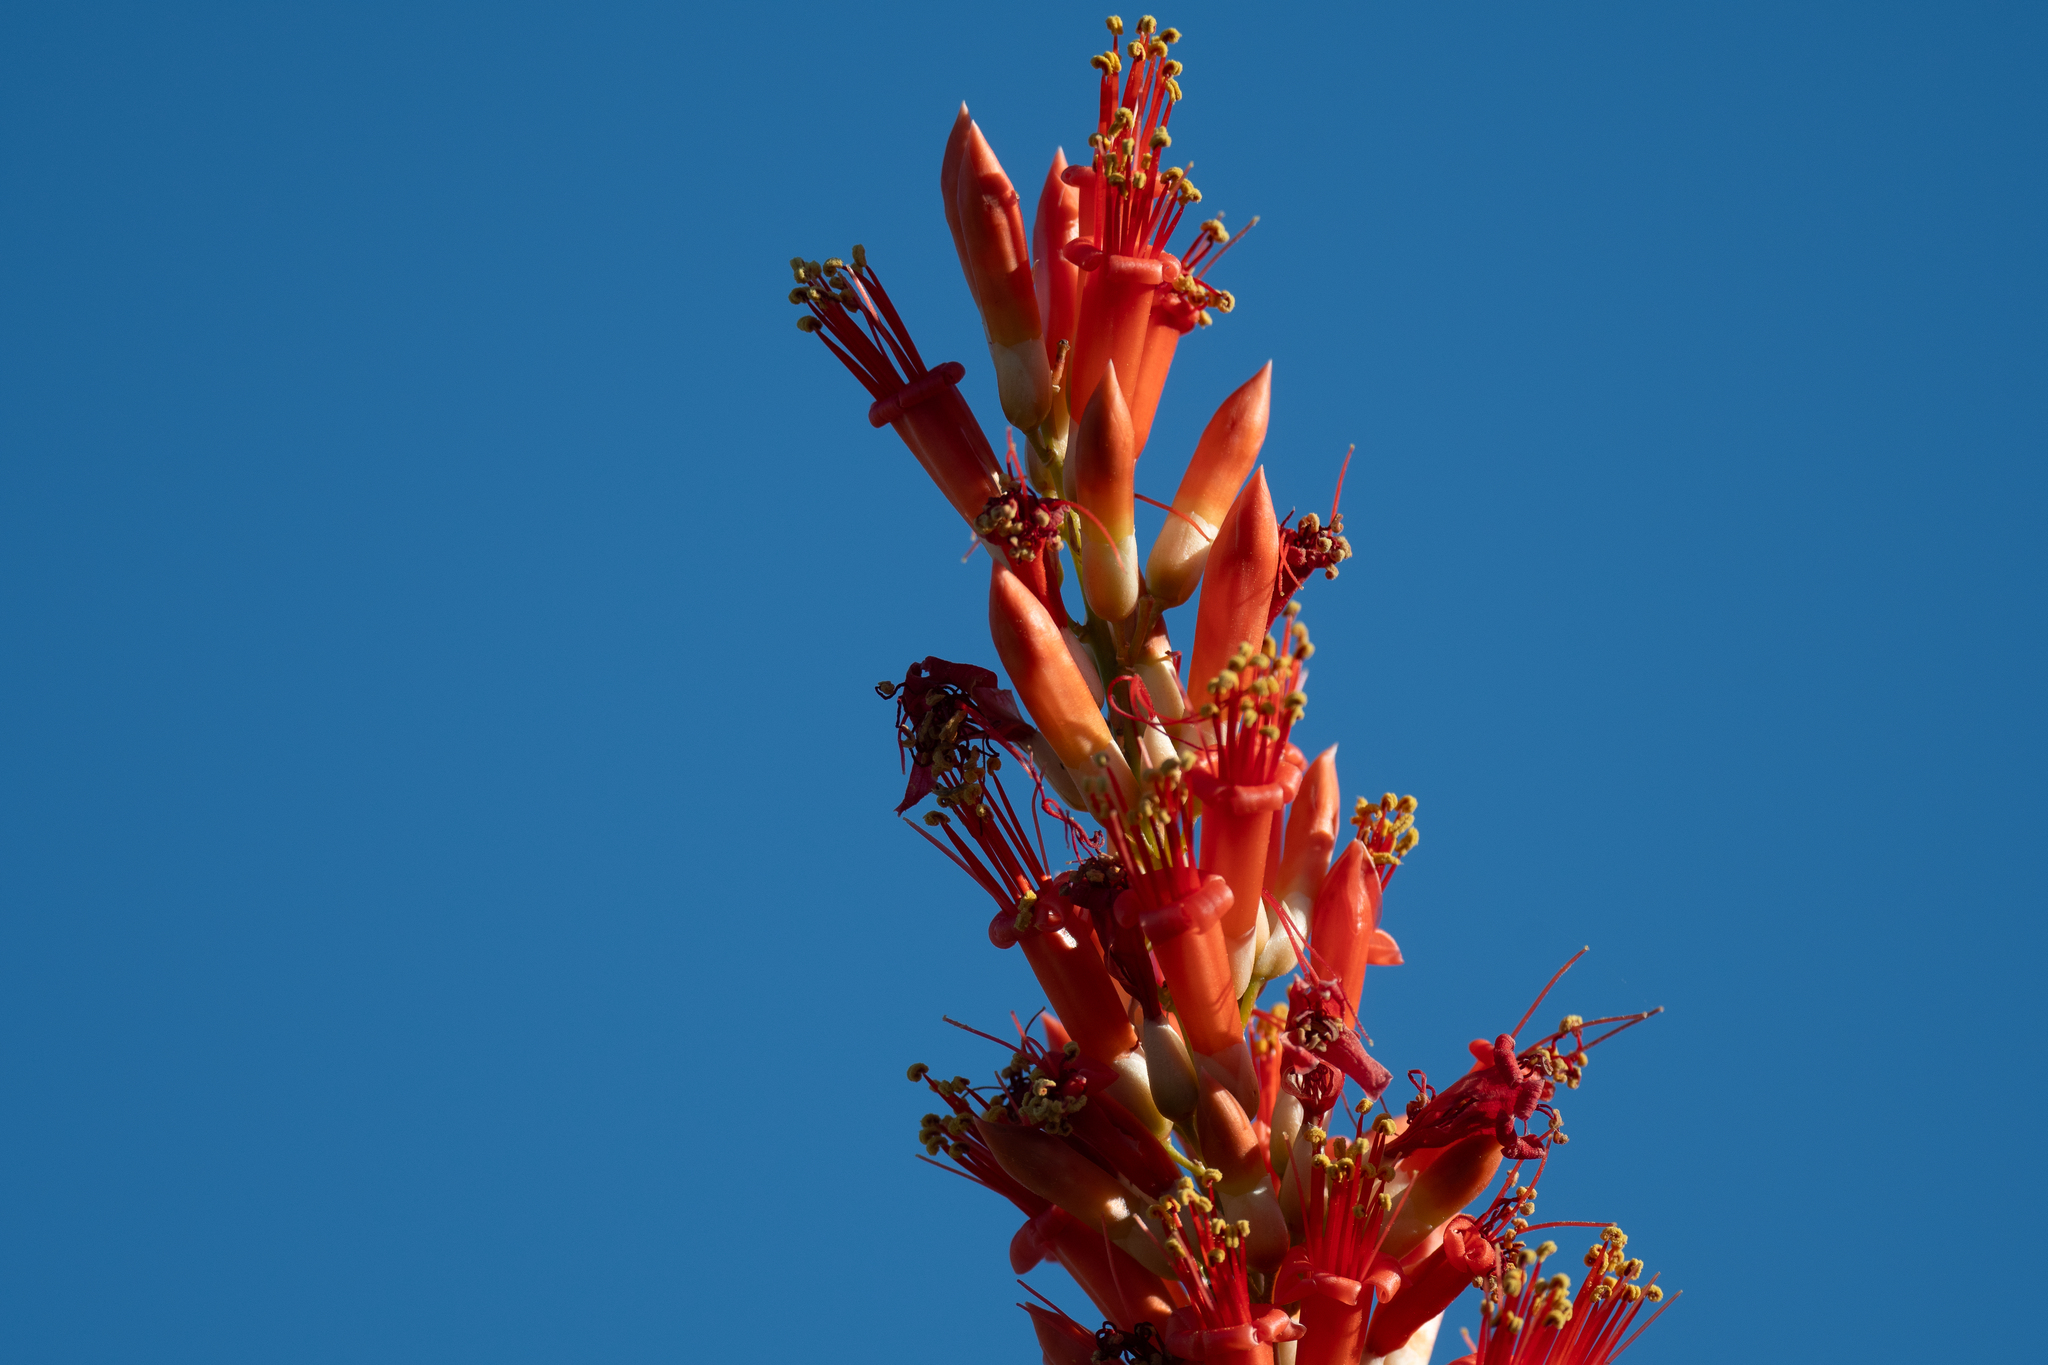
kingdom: Plantae
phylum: Tracheophyta
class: Magnoliopsida
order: Ericales
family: Fouquieriaceae
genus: Fouquieria
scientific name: Fouquieria splendens
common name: Vine-cactus
